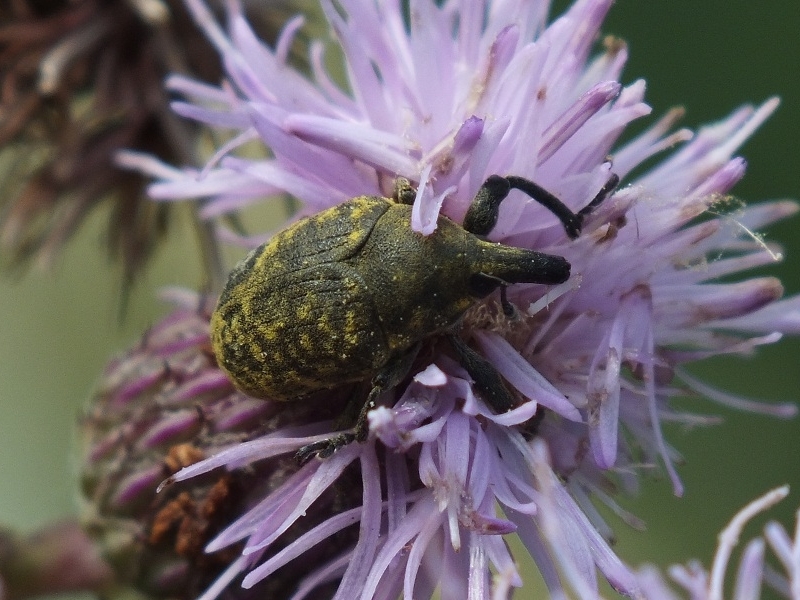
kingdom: Animalia
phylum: Arthropoda
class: Insecta
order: Coleoptera
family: Curculionidae
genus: Larinus
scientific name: Larinus turbinatus
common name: Weevil
